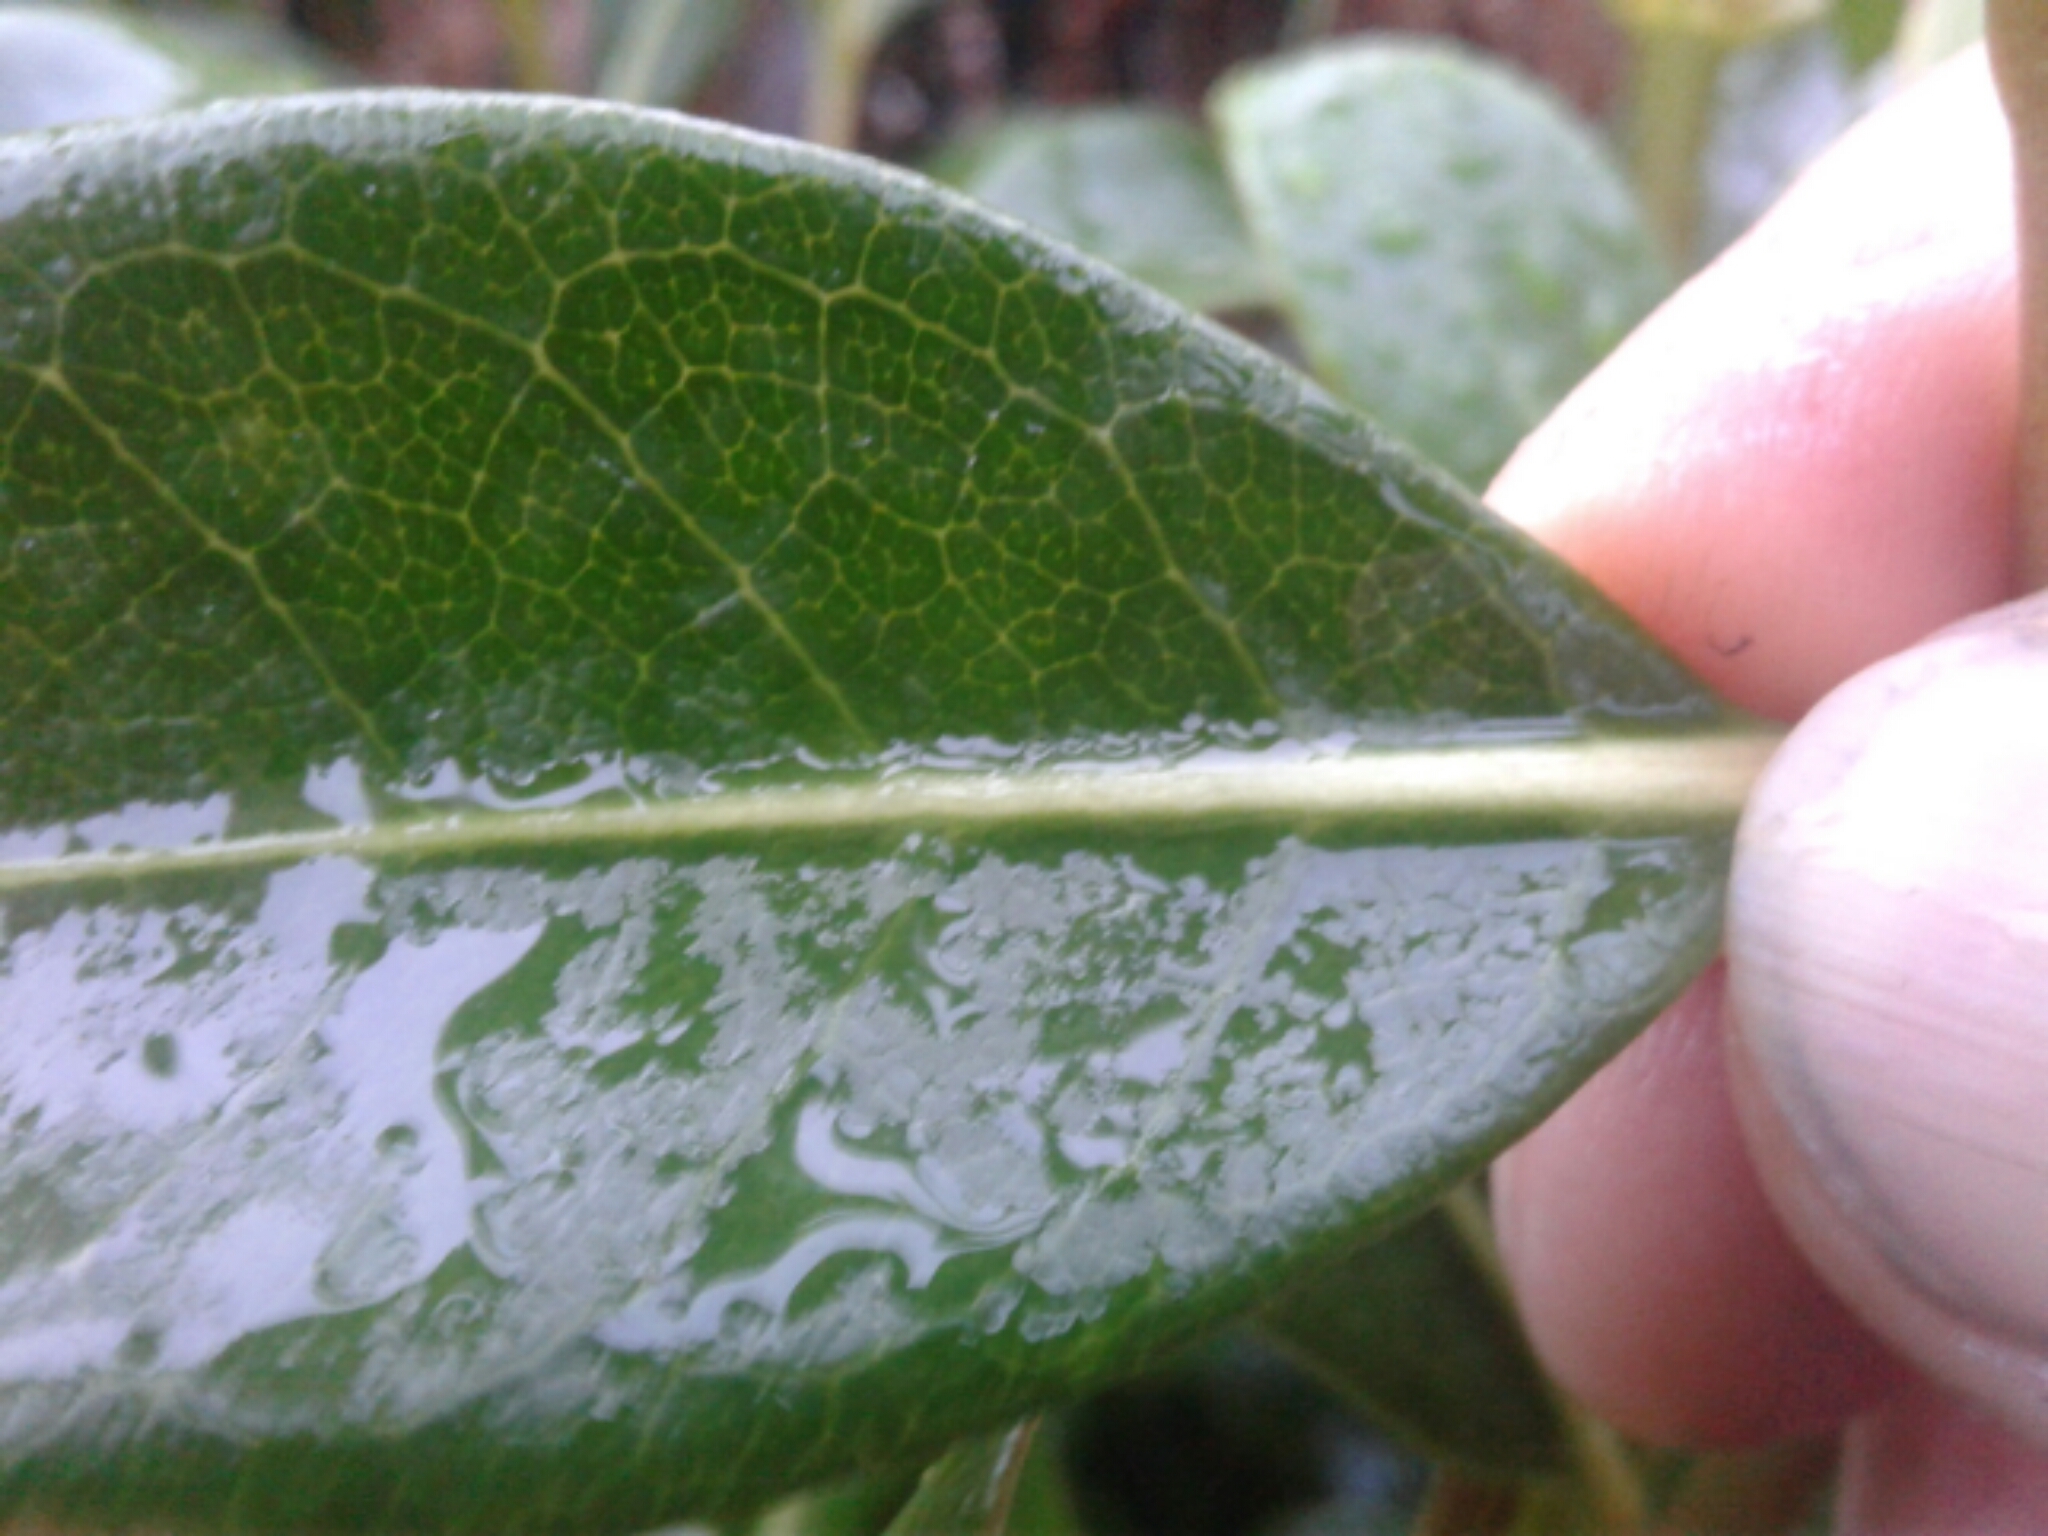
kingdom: Plantae
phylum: Tracheophyta
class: Magnoliopsida
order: Gentianales
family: Rubiaceae
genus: Coprosma
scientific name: Coprosma lucida
